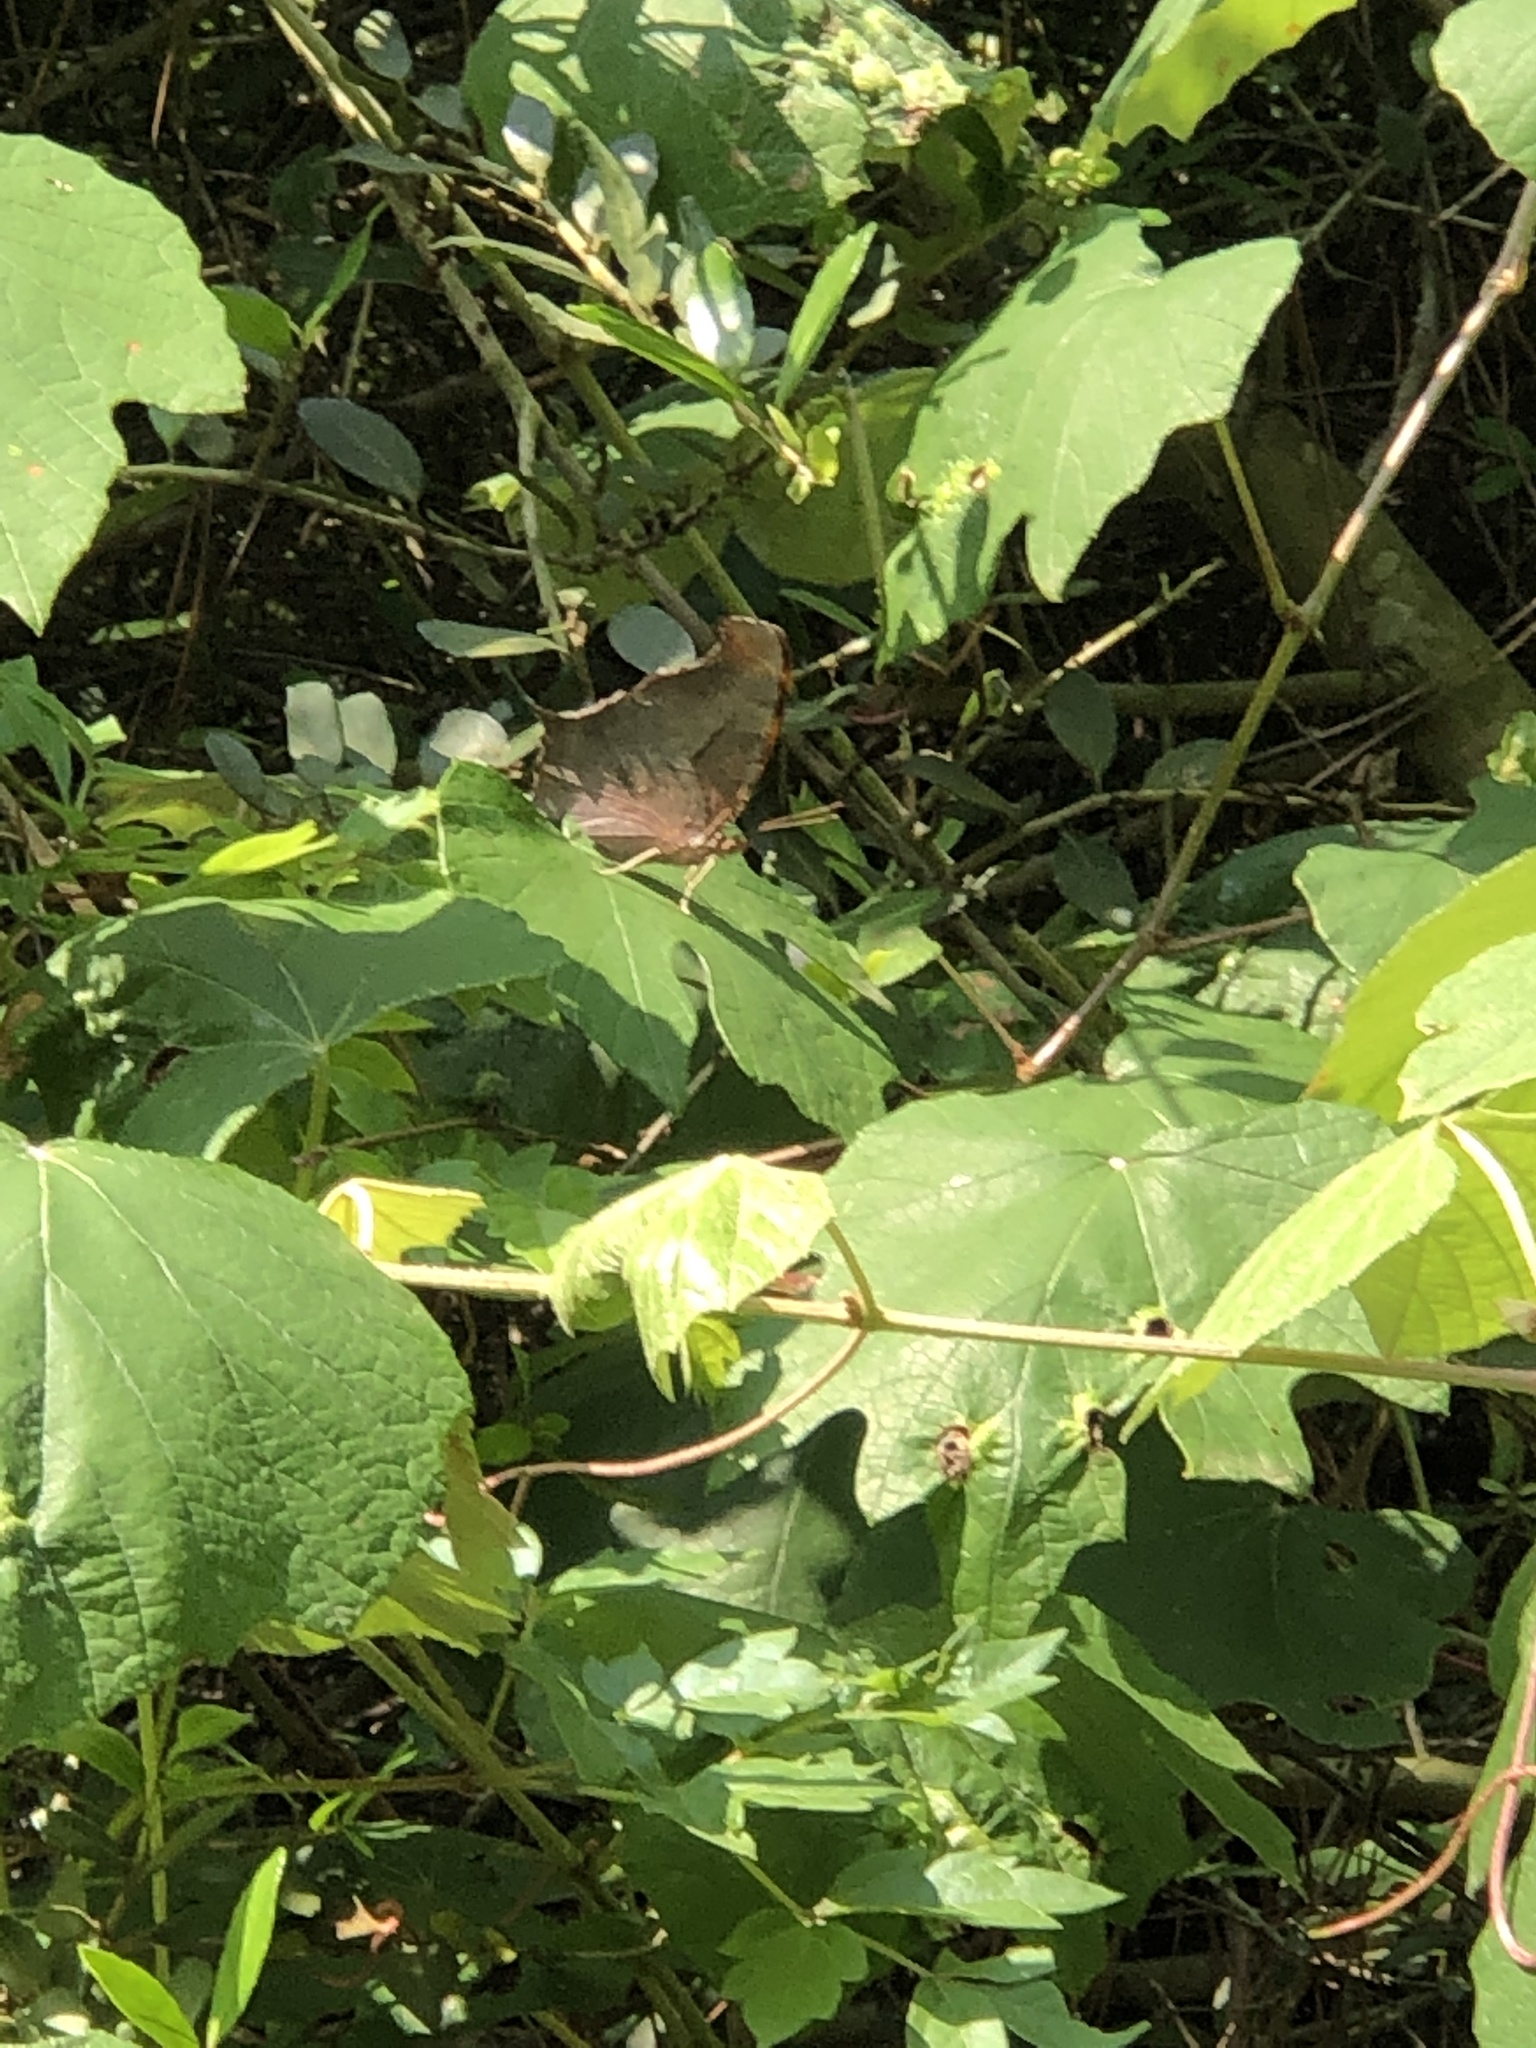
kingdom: Animalia
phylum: Arthropoda
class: Insecta
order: Lepidoptera
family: Nymphalidae
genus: Anaea
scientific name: Anaea andria
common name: Goatweed leafwing
